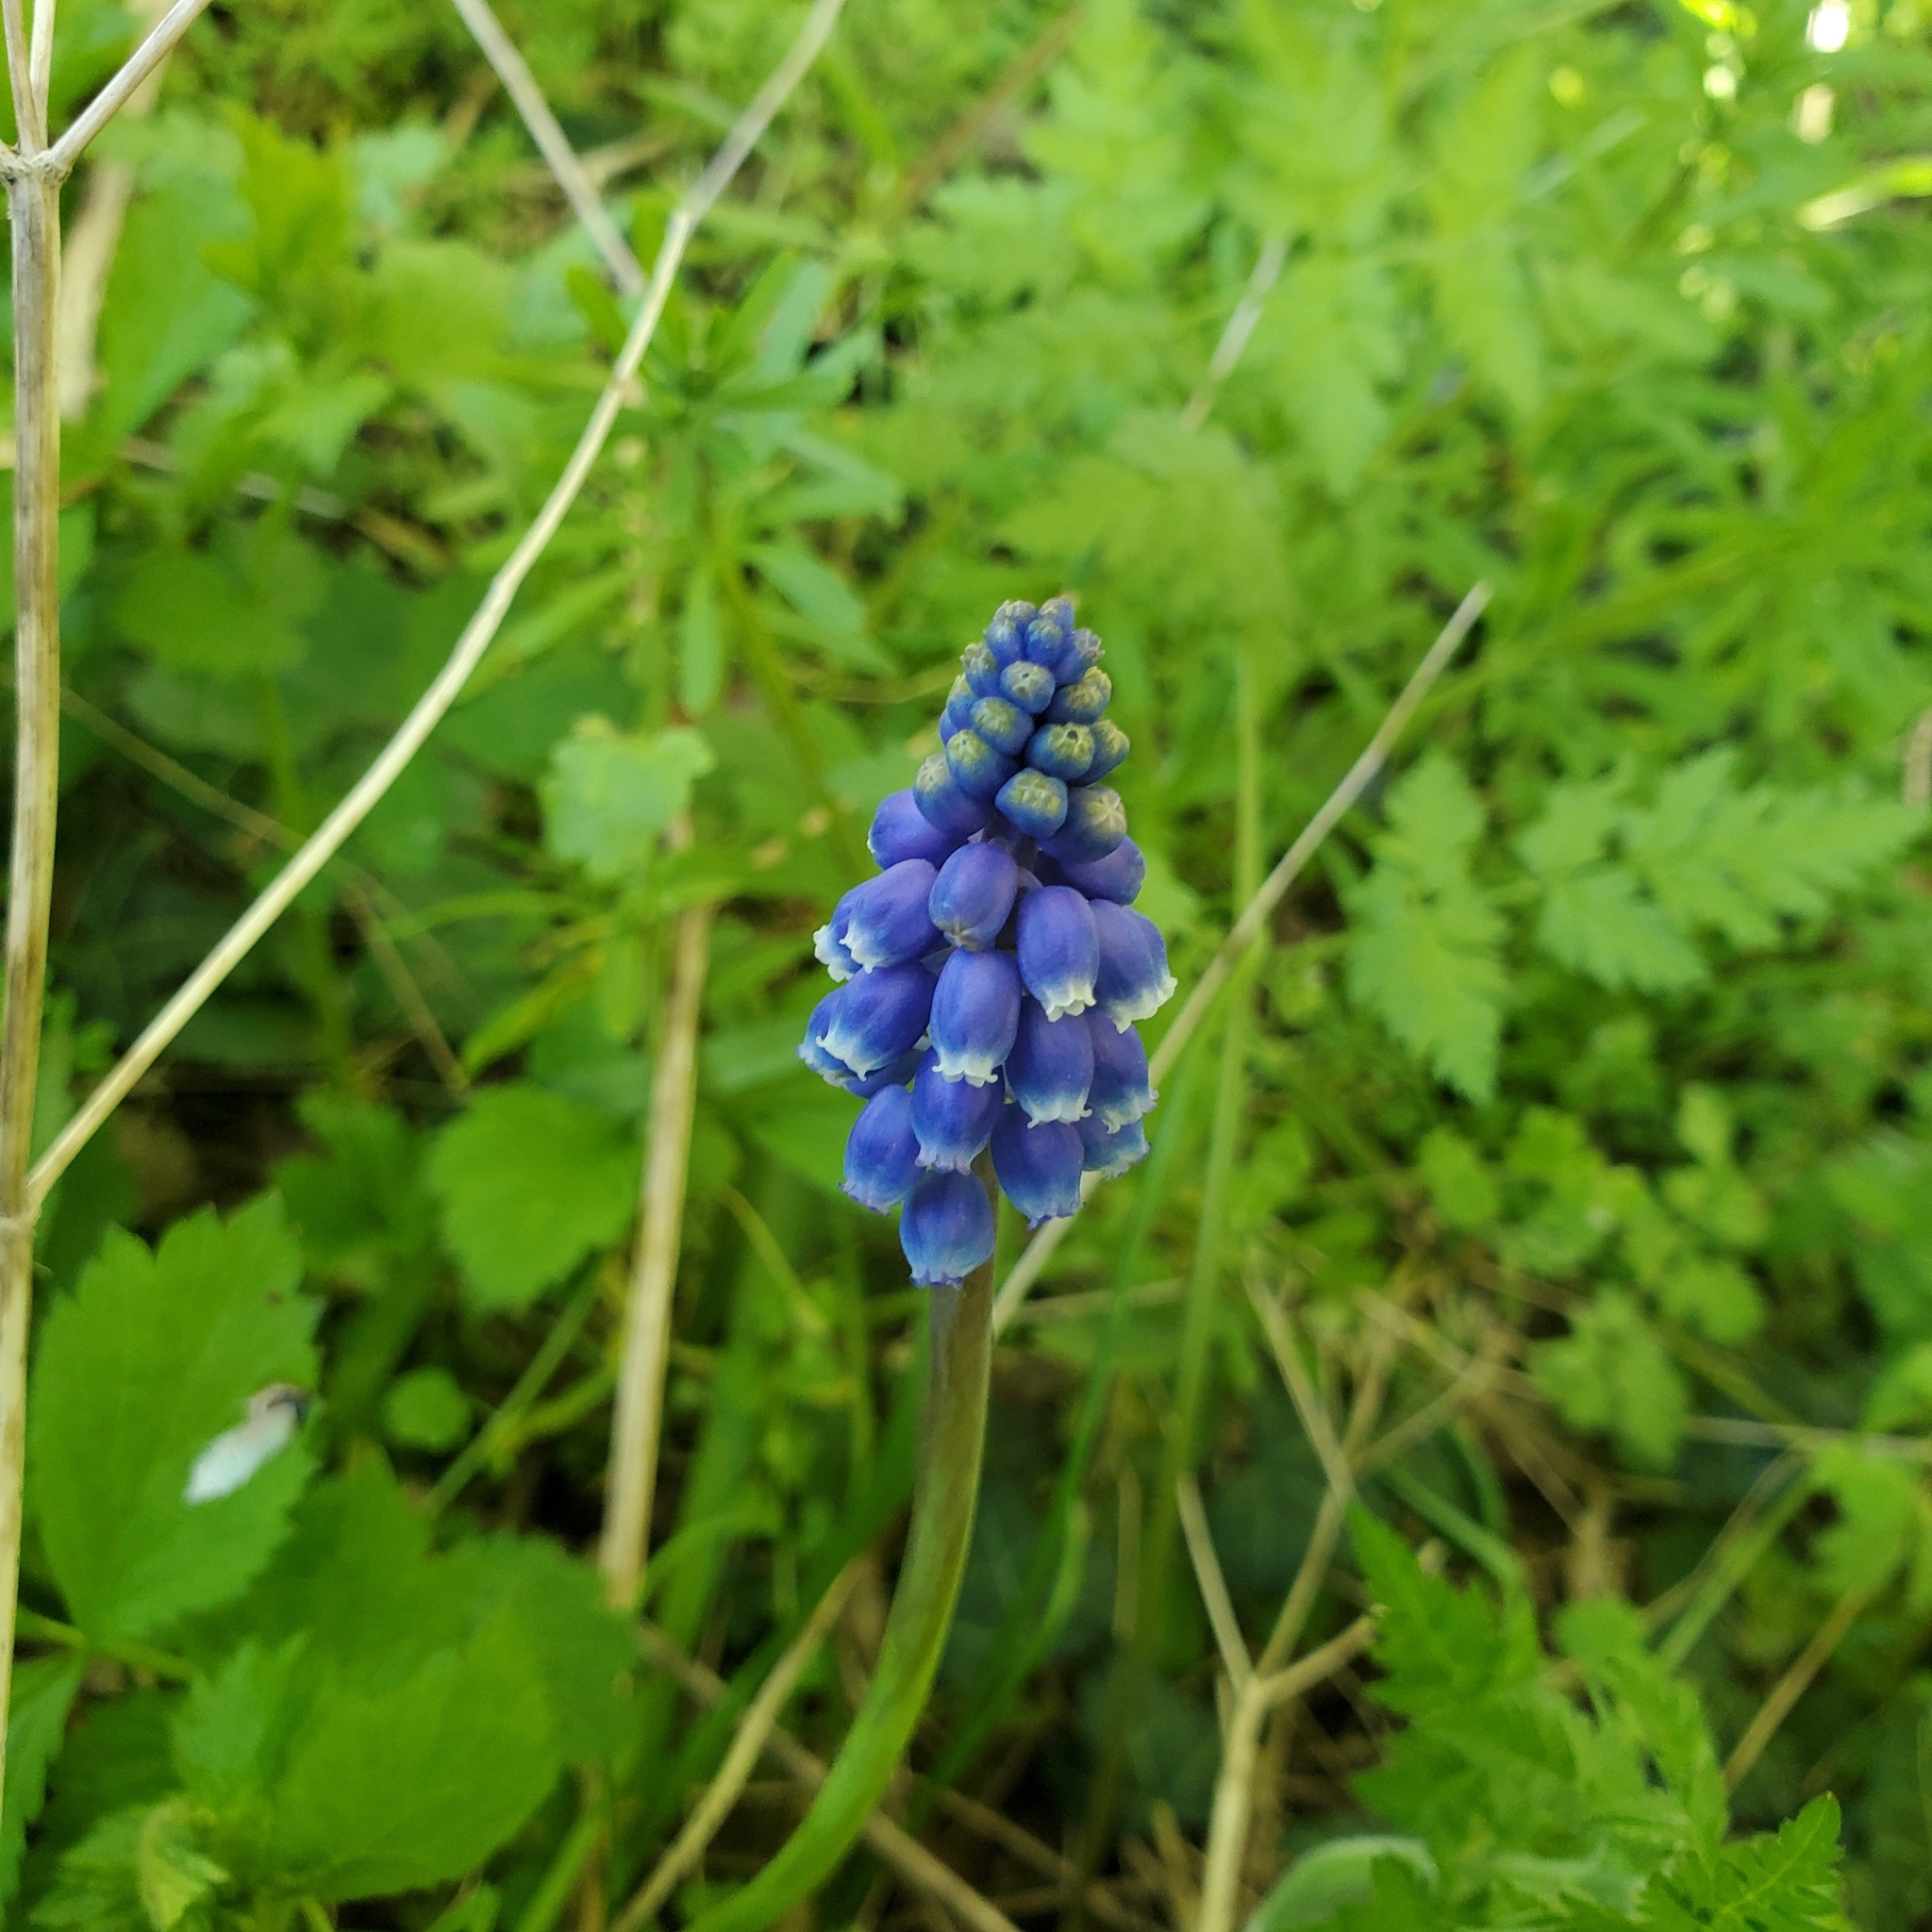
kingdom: Plantae
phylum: Tracheophyta
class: Liliopsida
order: Asparagales
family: Asparagaceae
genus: Muscari
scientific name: Muscari armeniacum
